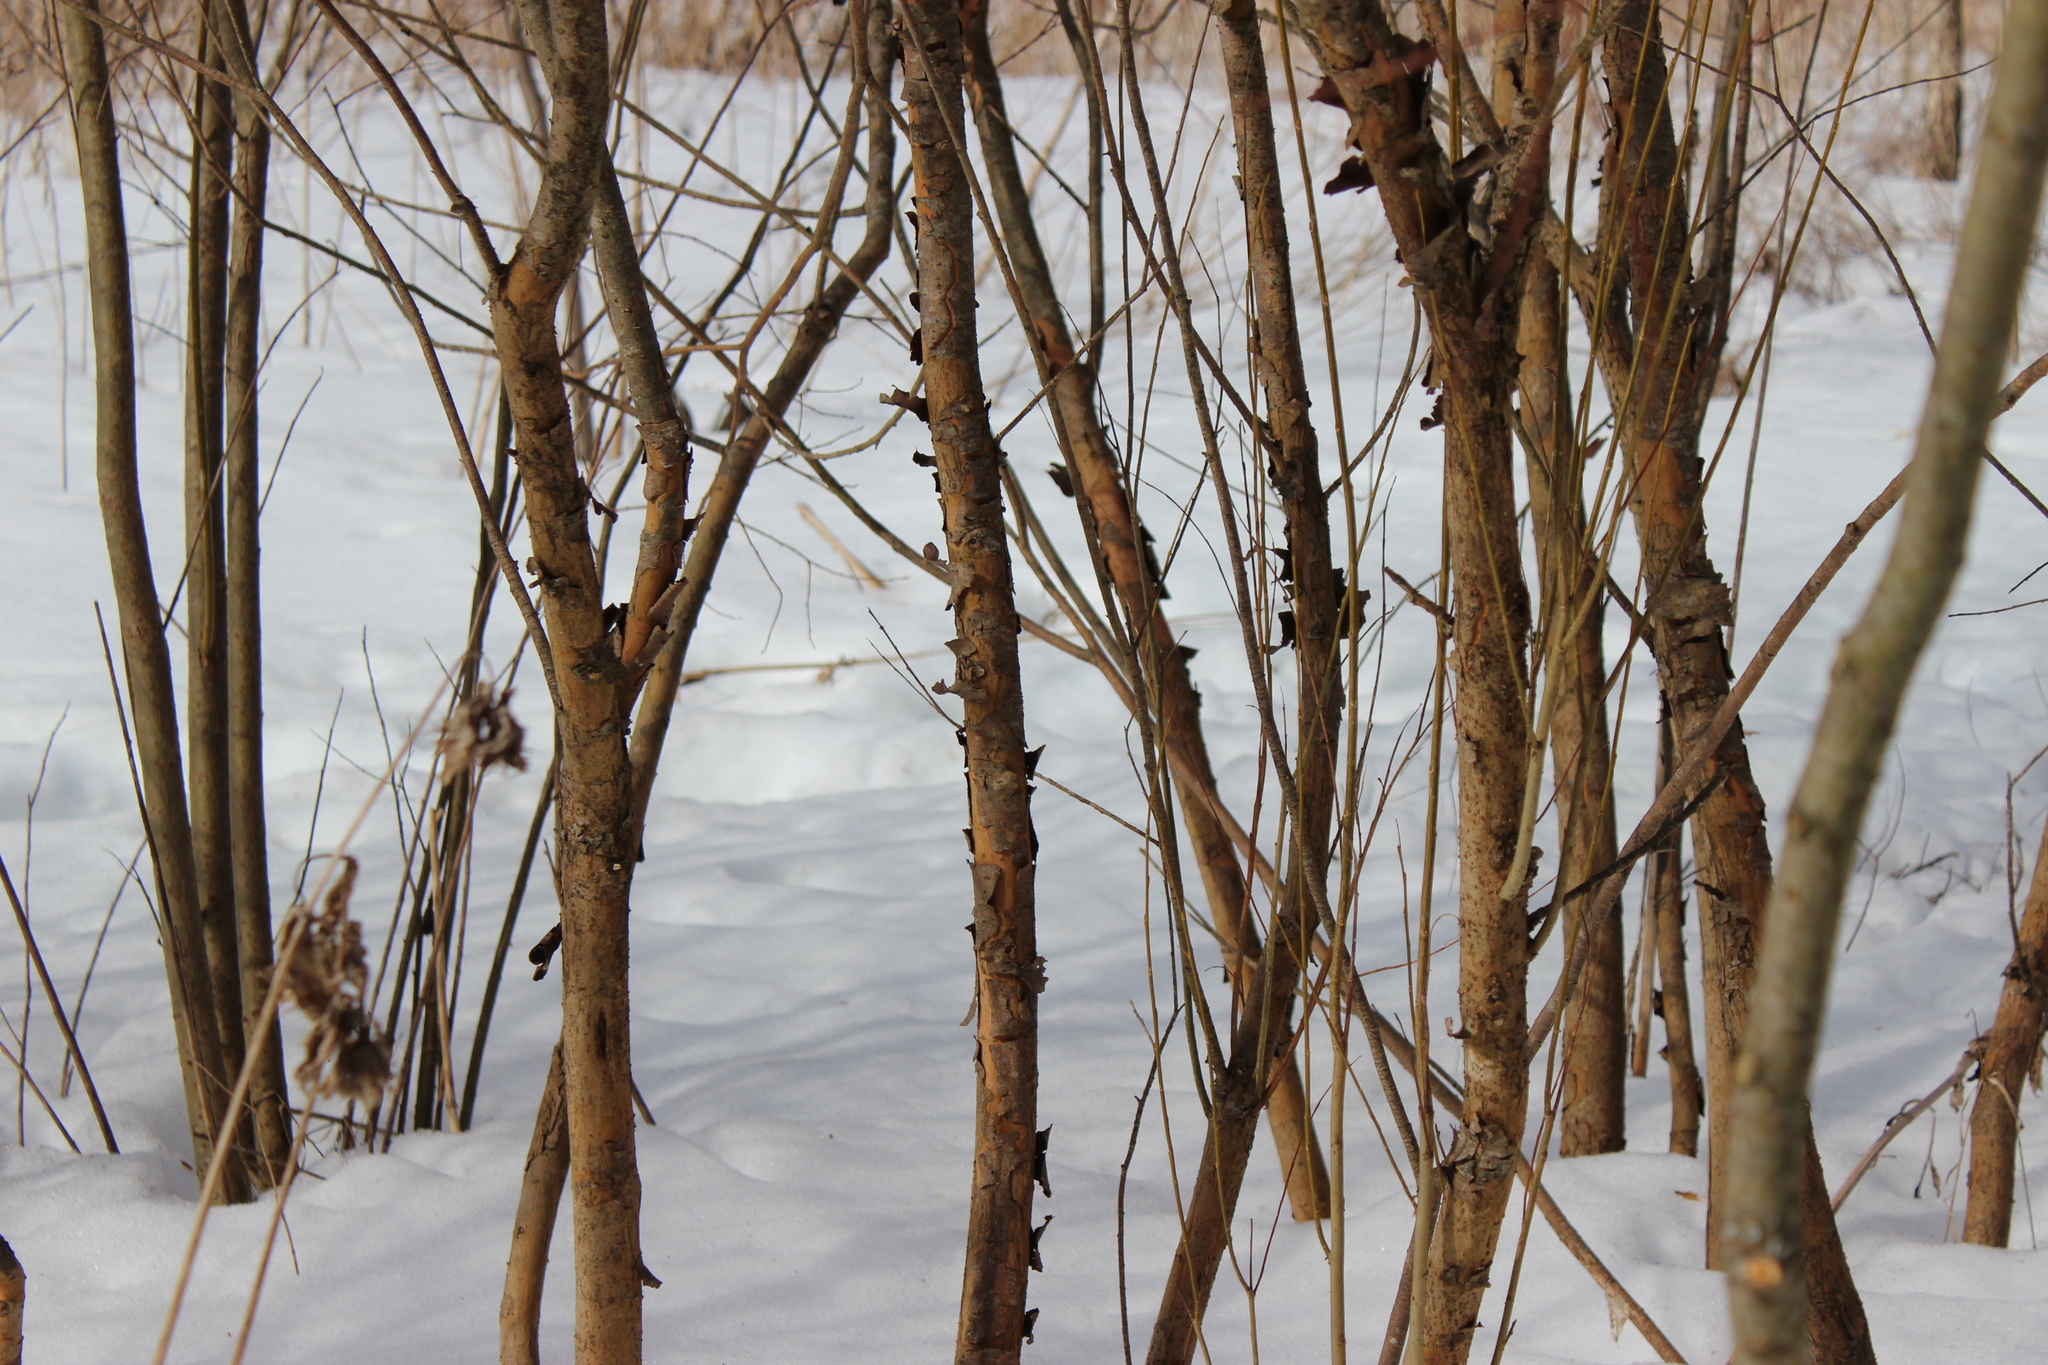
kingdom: Plantae
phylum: Tracheophyta
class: Magnoliopsida
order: Malpighiales
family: Salicaceae
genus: Salix
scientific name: Salix triandra
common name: Almond willow
